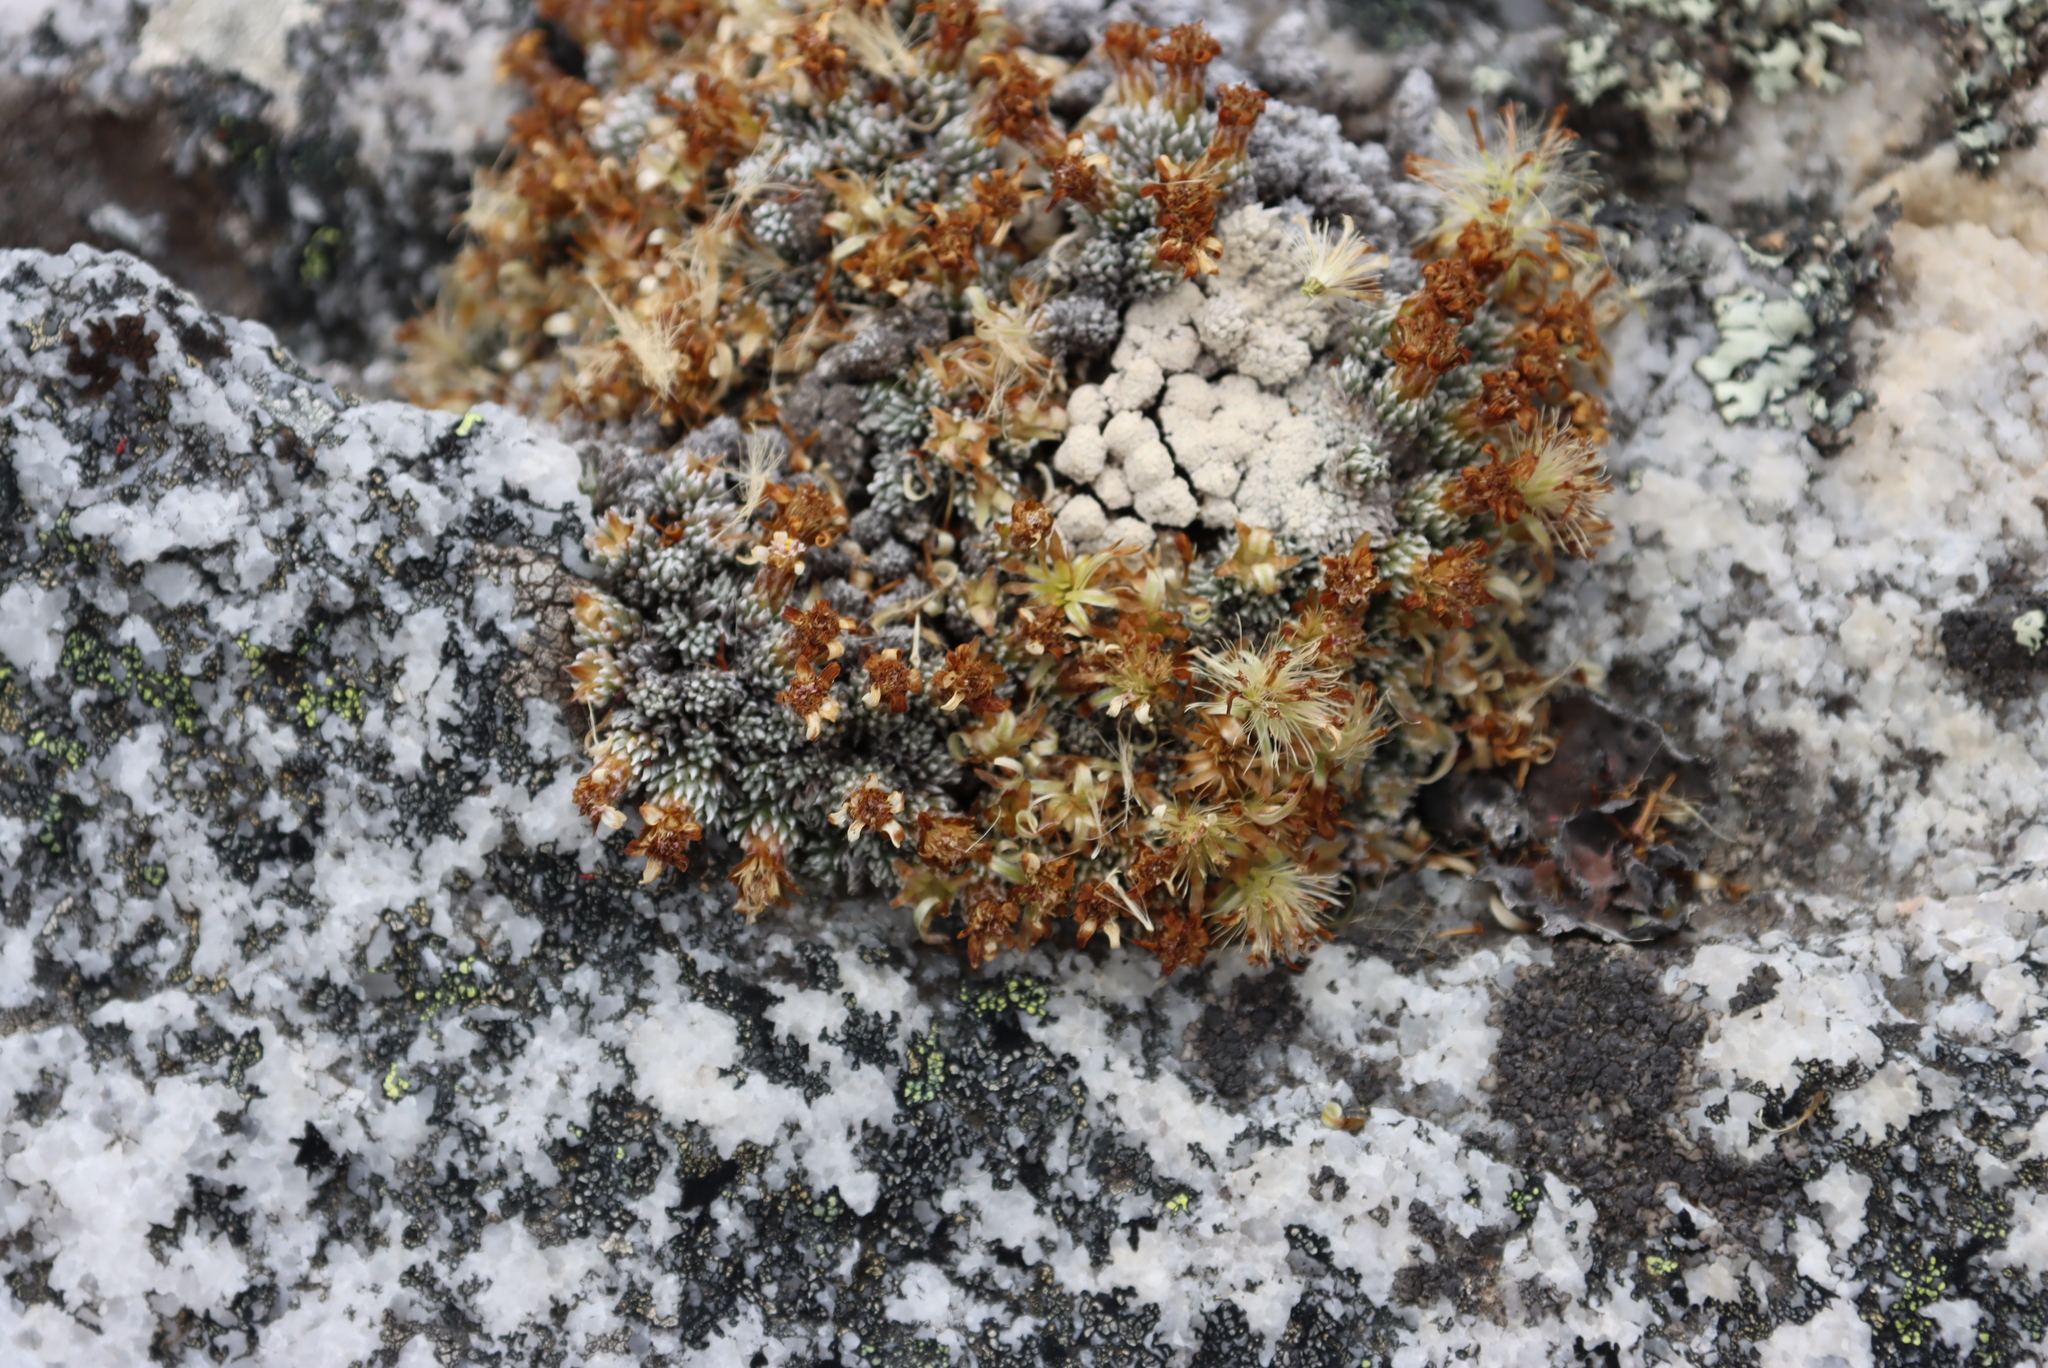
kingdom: Plantae
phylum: Tracheophyta
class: Magnoliopsida
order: Asterales
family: Asteraceae
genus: Muscosomorphe
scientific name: Muscosomorphe aretioides
